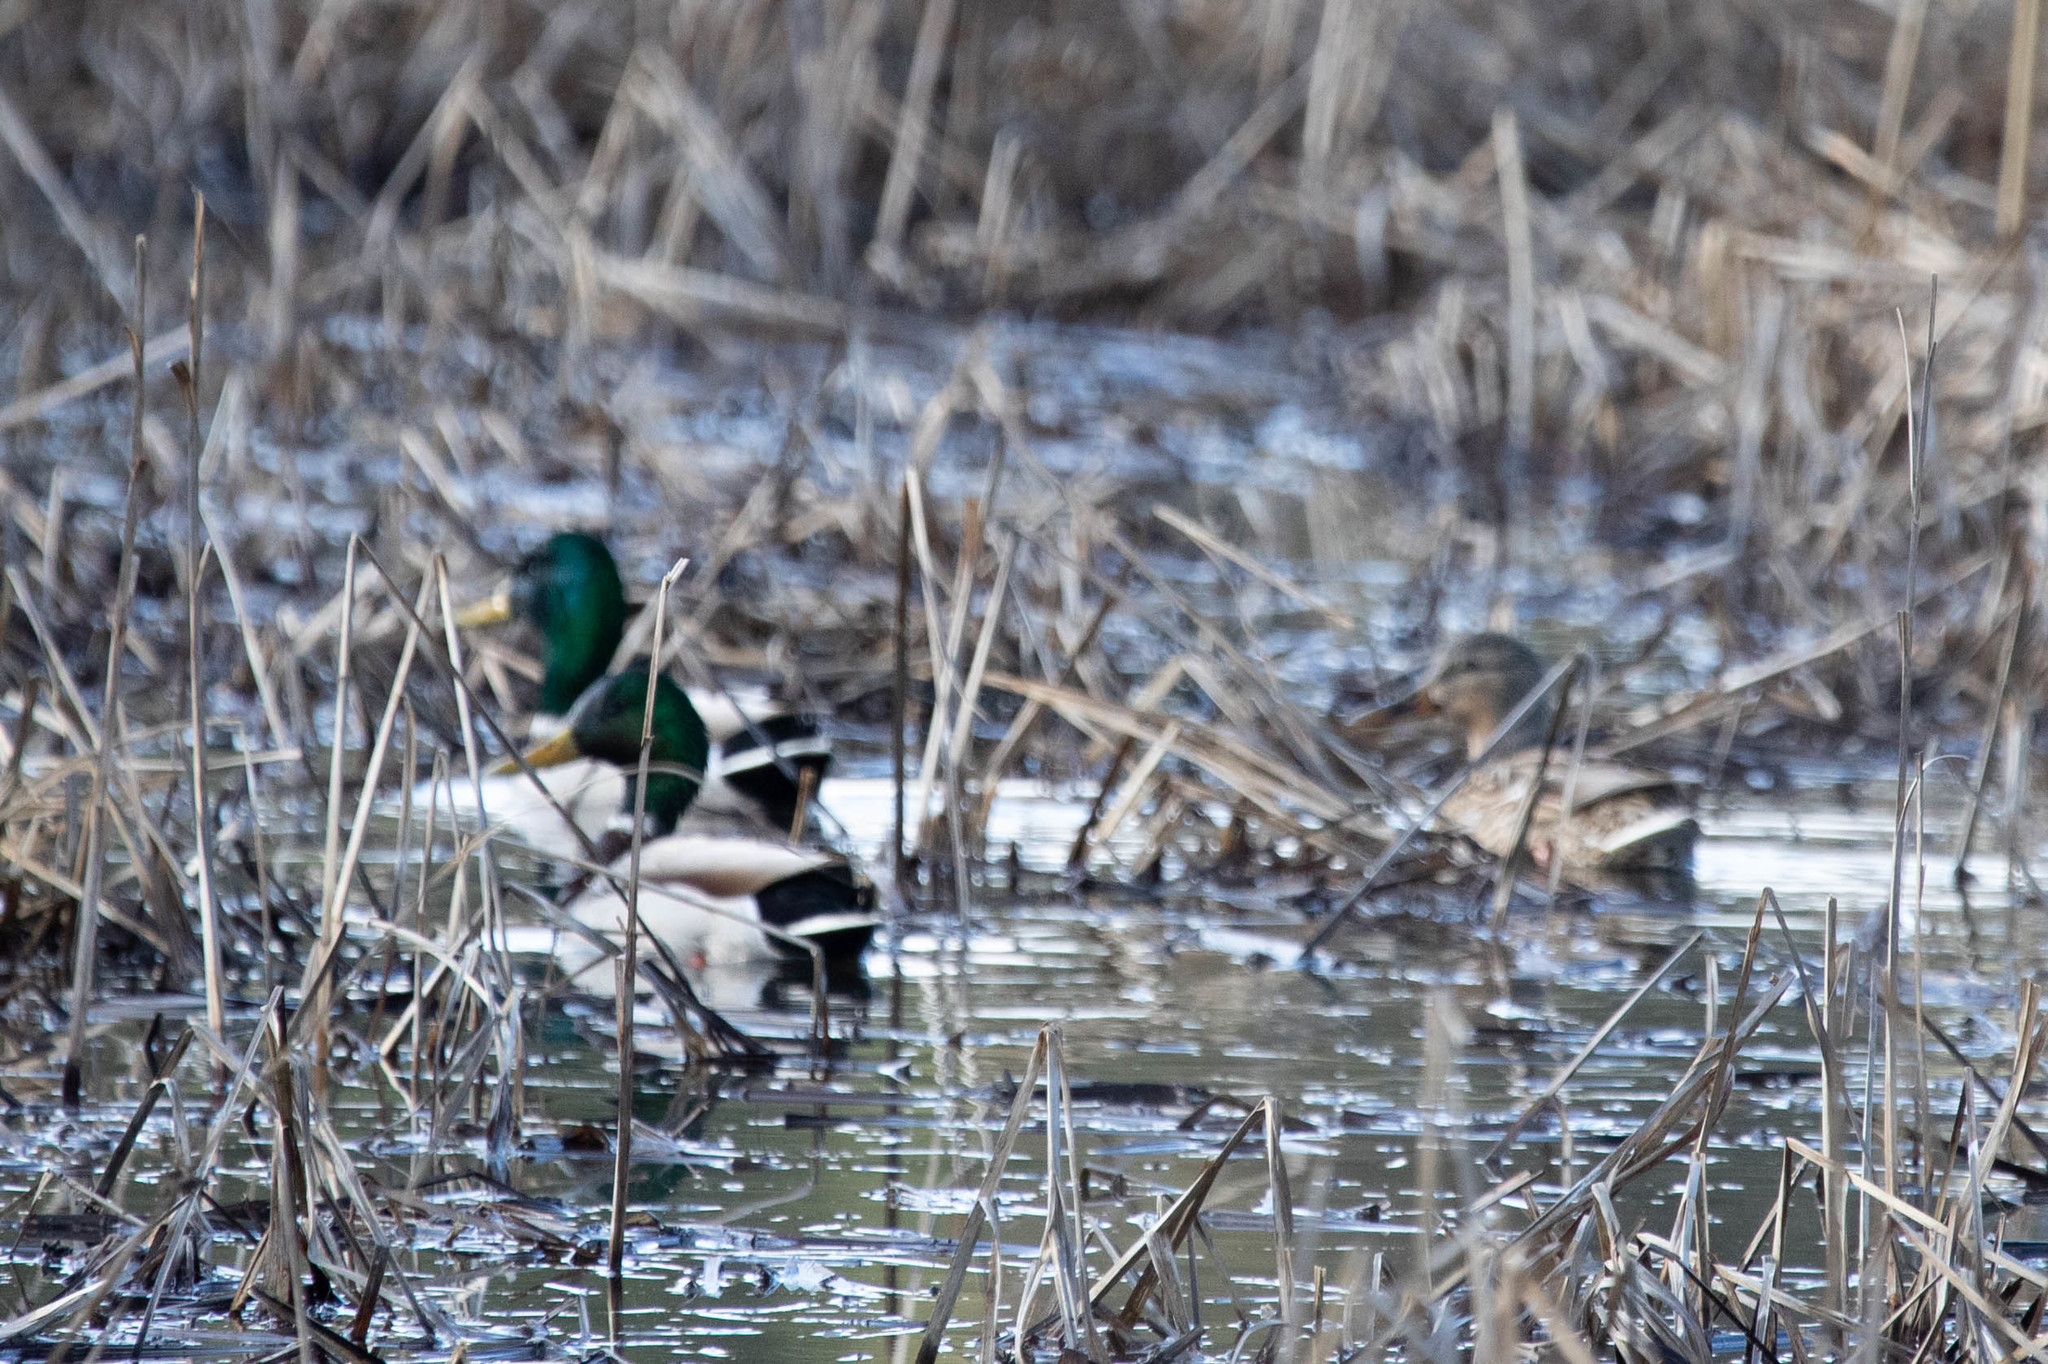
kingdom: Animalia
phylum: Chordata
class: Aves
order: Anseriformes
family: Anatidae
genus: Anas
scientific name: Anas platyrhynchos
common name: Mallard
